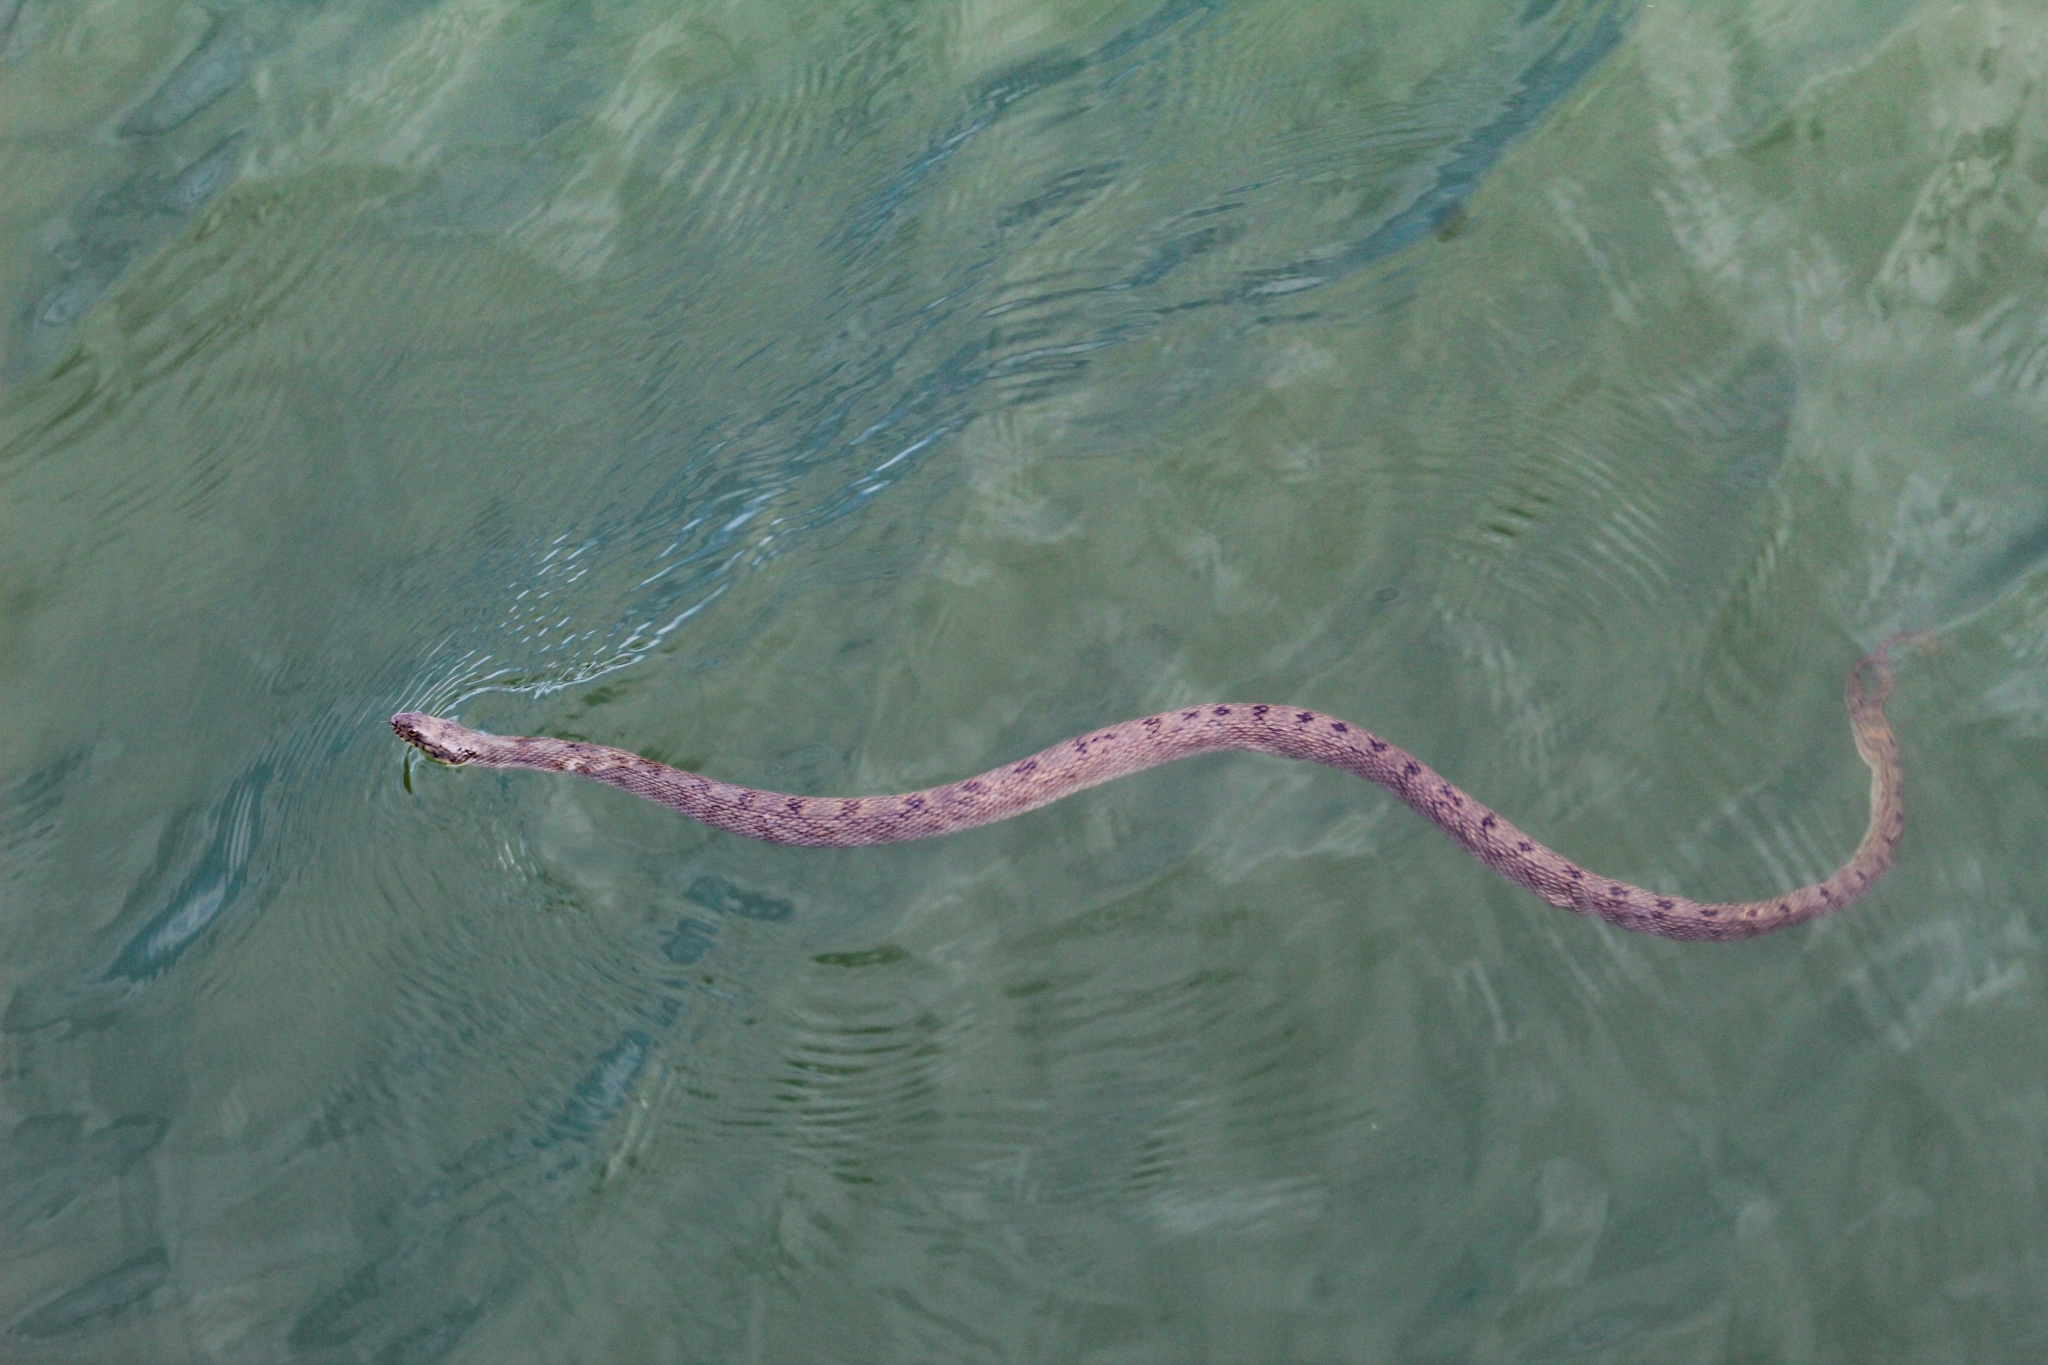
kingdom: Animalia
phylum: Chordata
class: Squamata
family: Colubridae
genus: Nerodia
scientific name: Nerodia rhombifer
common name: Diamondback water snake
